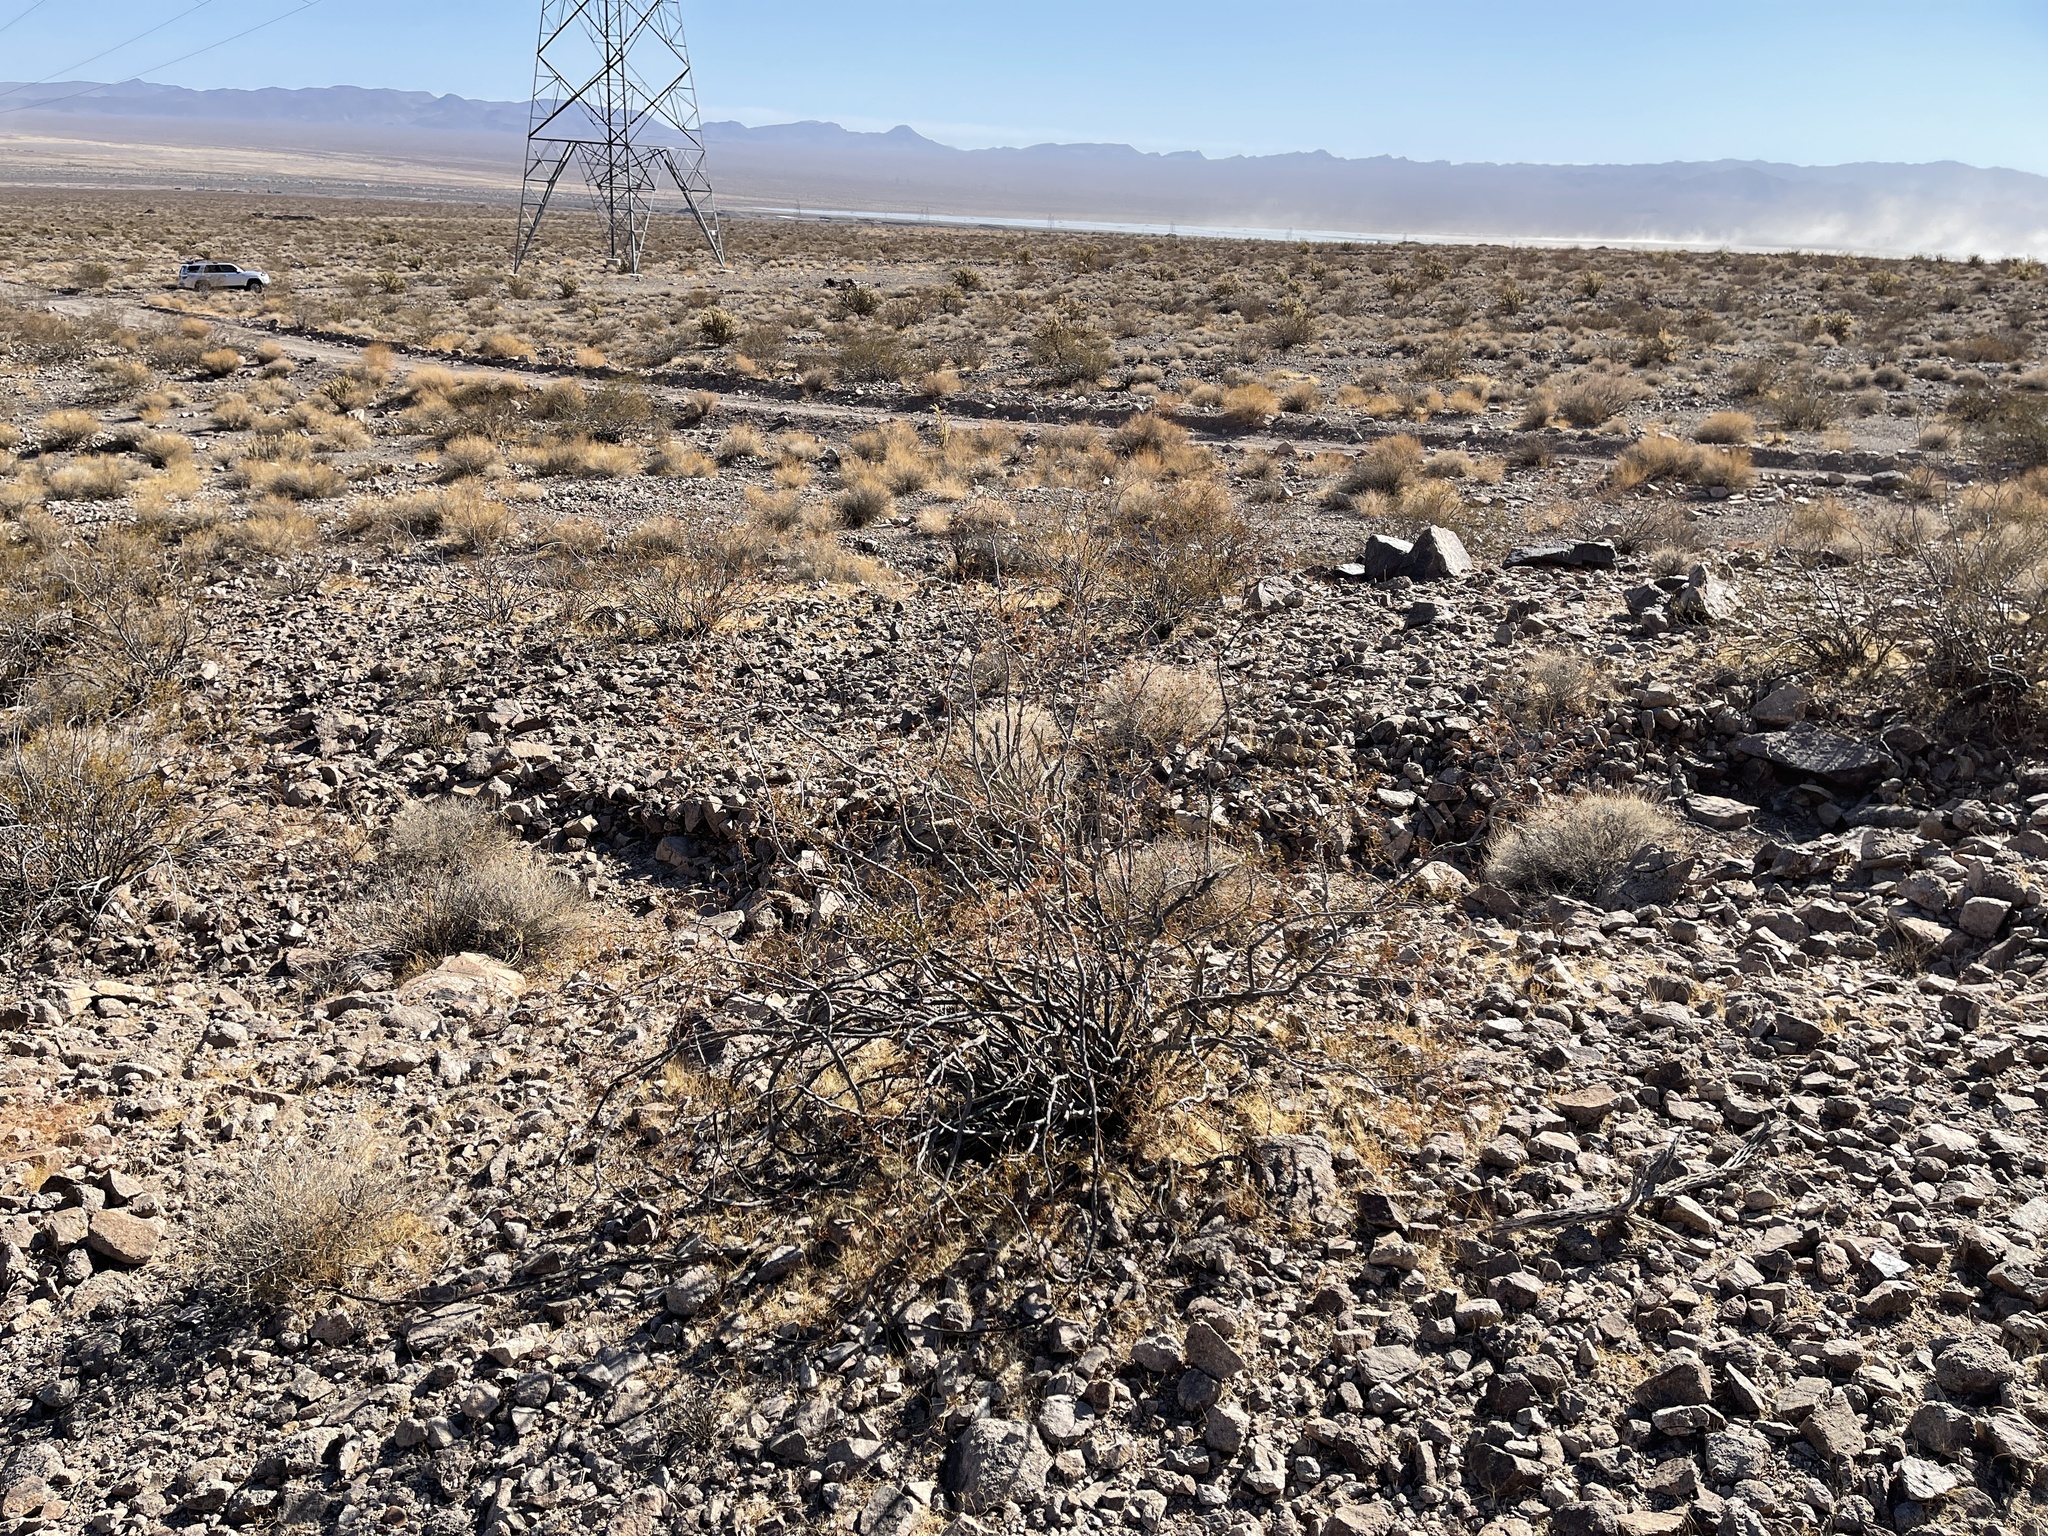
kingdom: Plantae
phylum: Tracheophyta
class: Magnoliopsida
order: Zygophyllales
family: Zygophyllaceae
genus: Larrea
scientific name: Larrea tridentata
